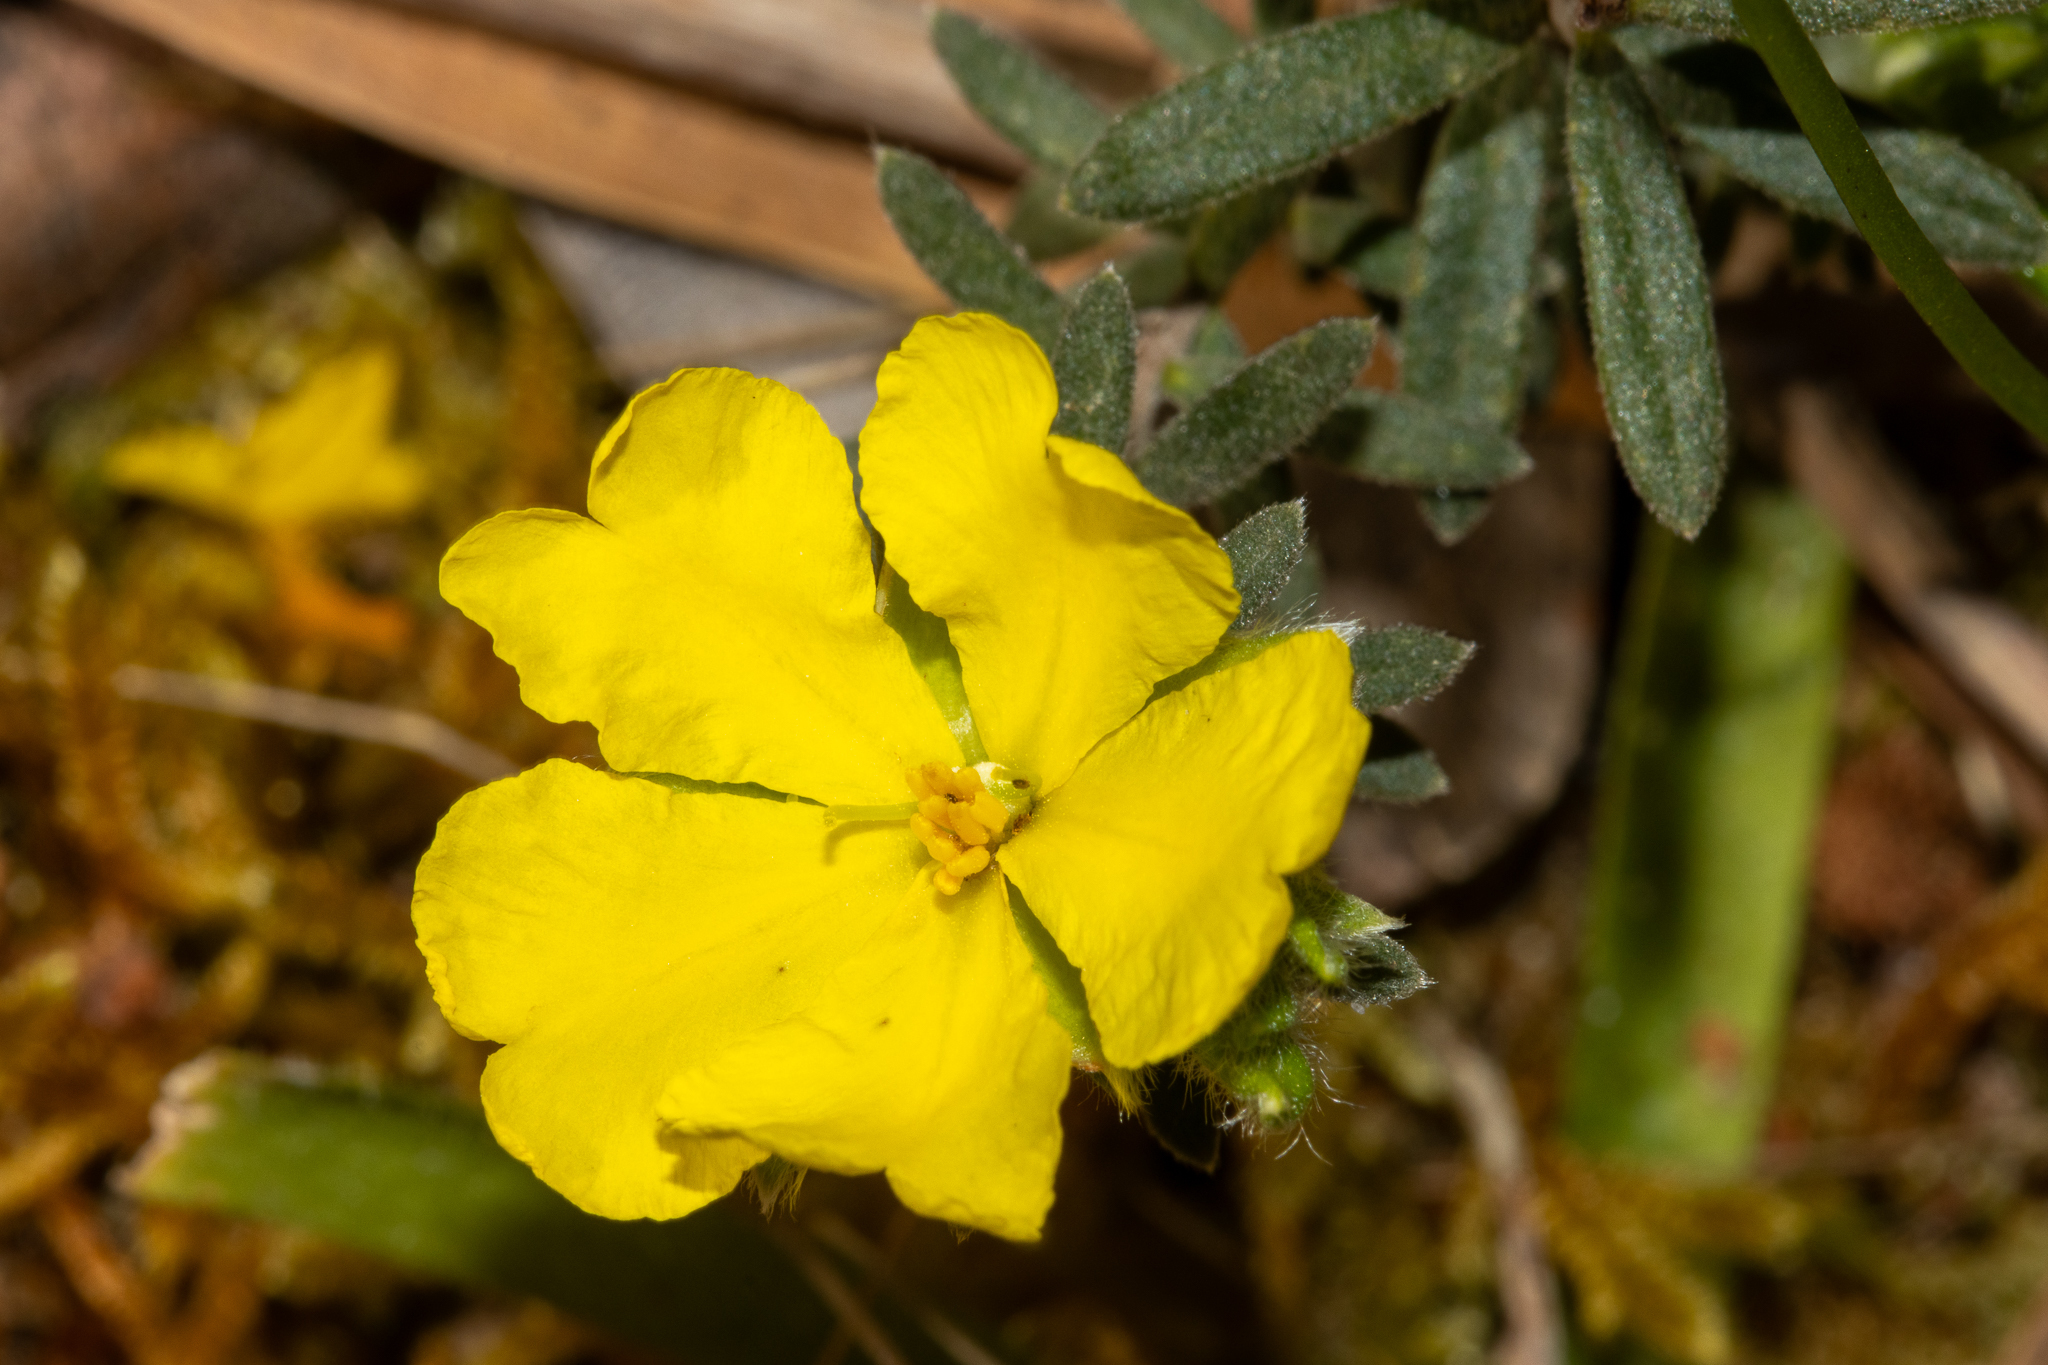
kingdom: Plantae
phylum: Tracheophyta
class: Magnoliopsida
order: Dilleniales
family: Dilleniaceae
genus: Hibbertia
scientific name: Hibbertia crinita
